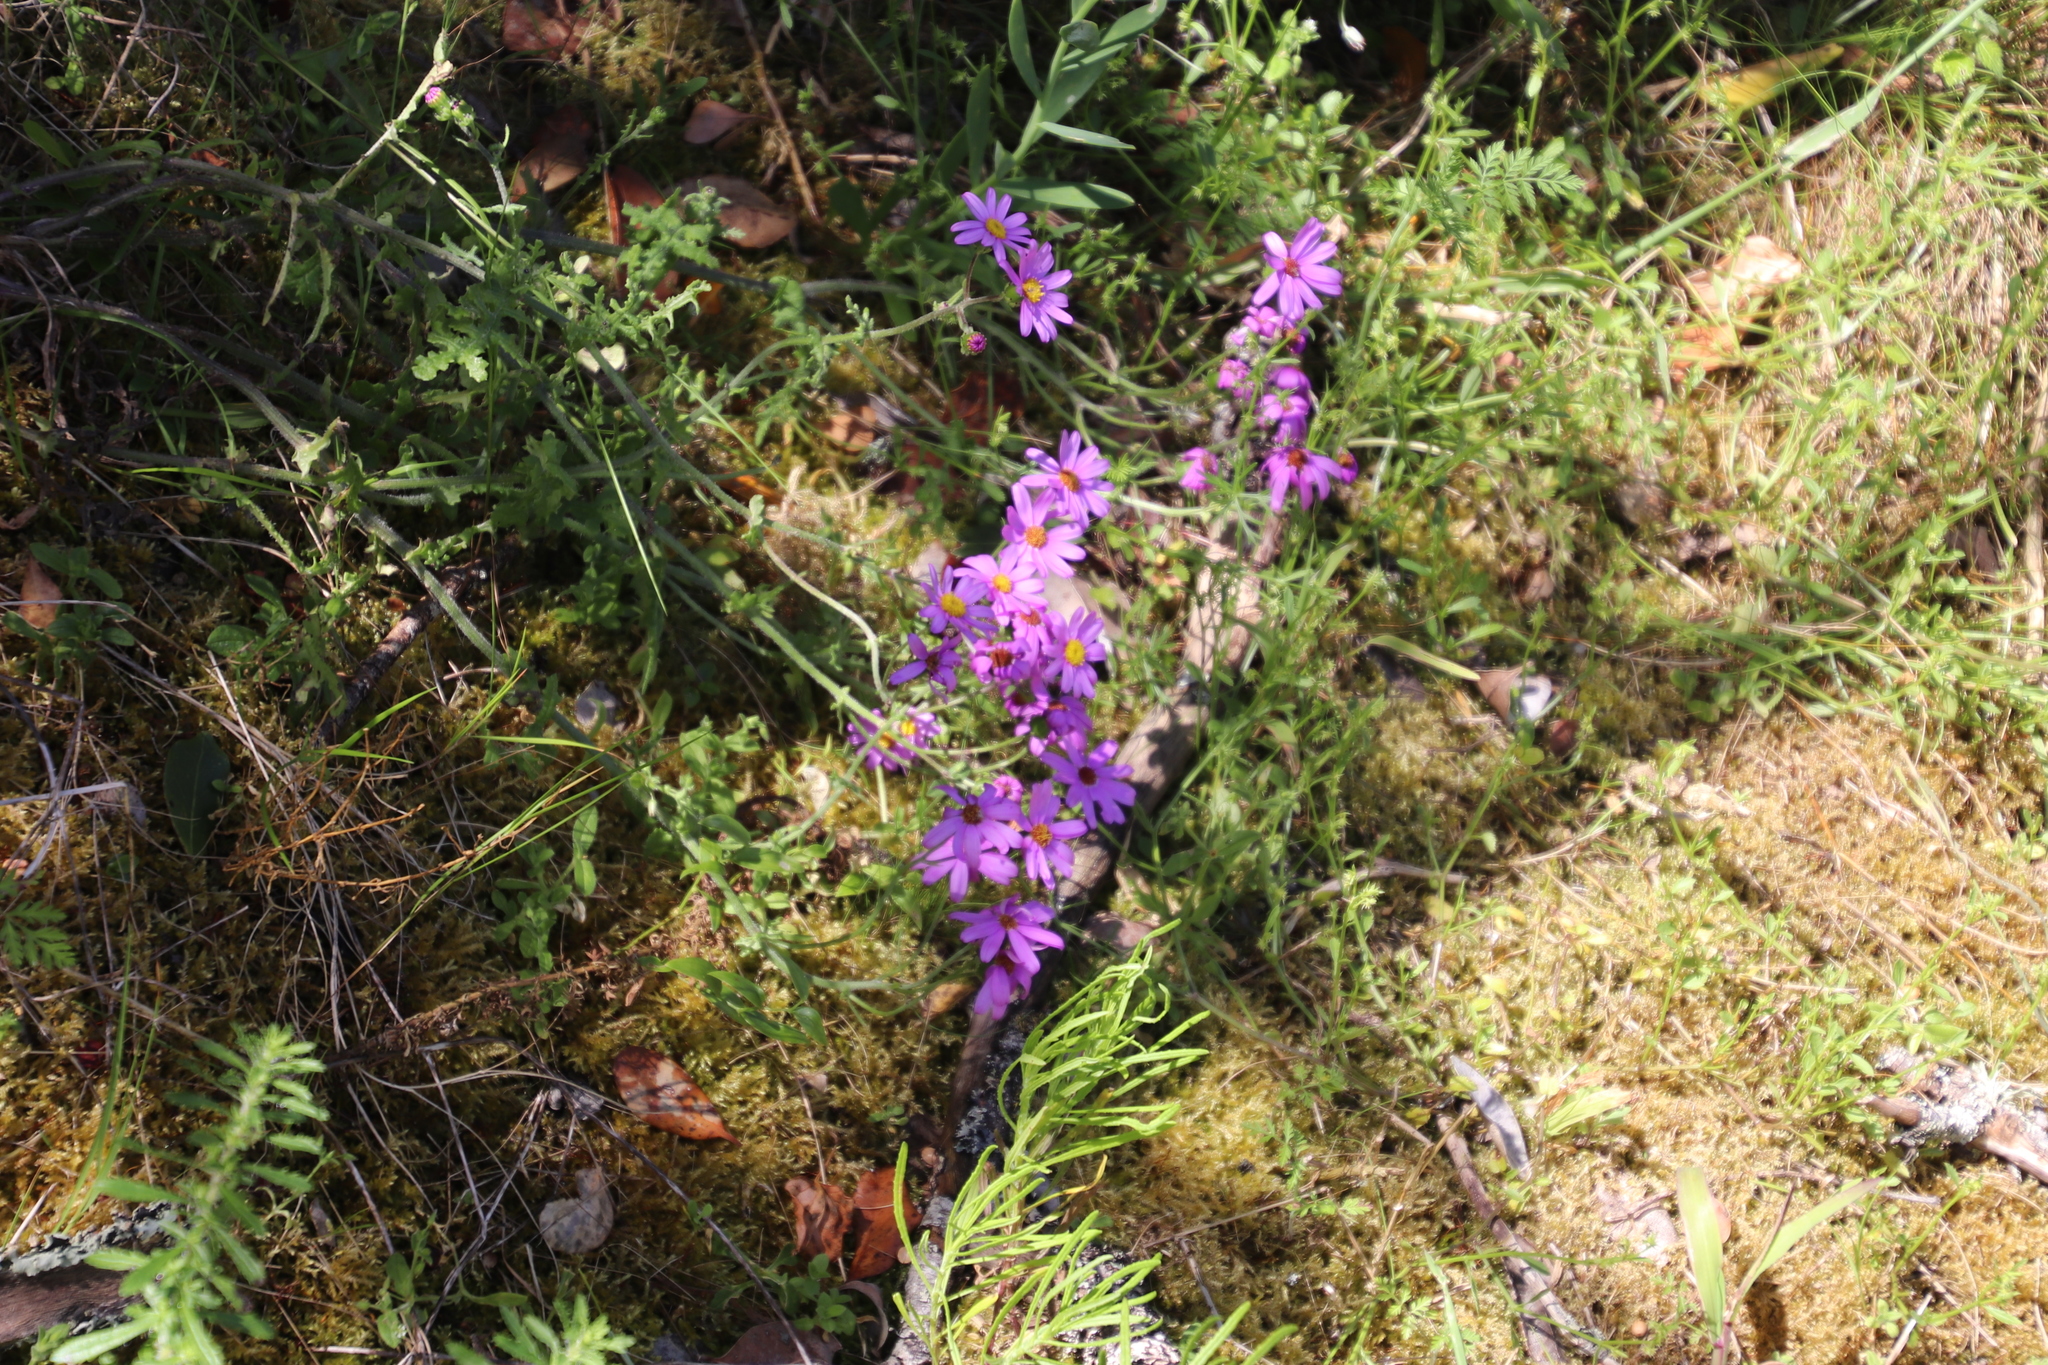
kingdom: Plantae
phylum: Tracheophyta
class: Magnoliopsida
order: Asterales
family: Asteraceae
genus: Senecio
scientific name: Senecio elegans
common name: Purple groundsel
